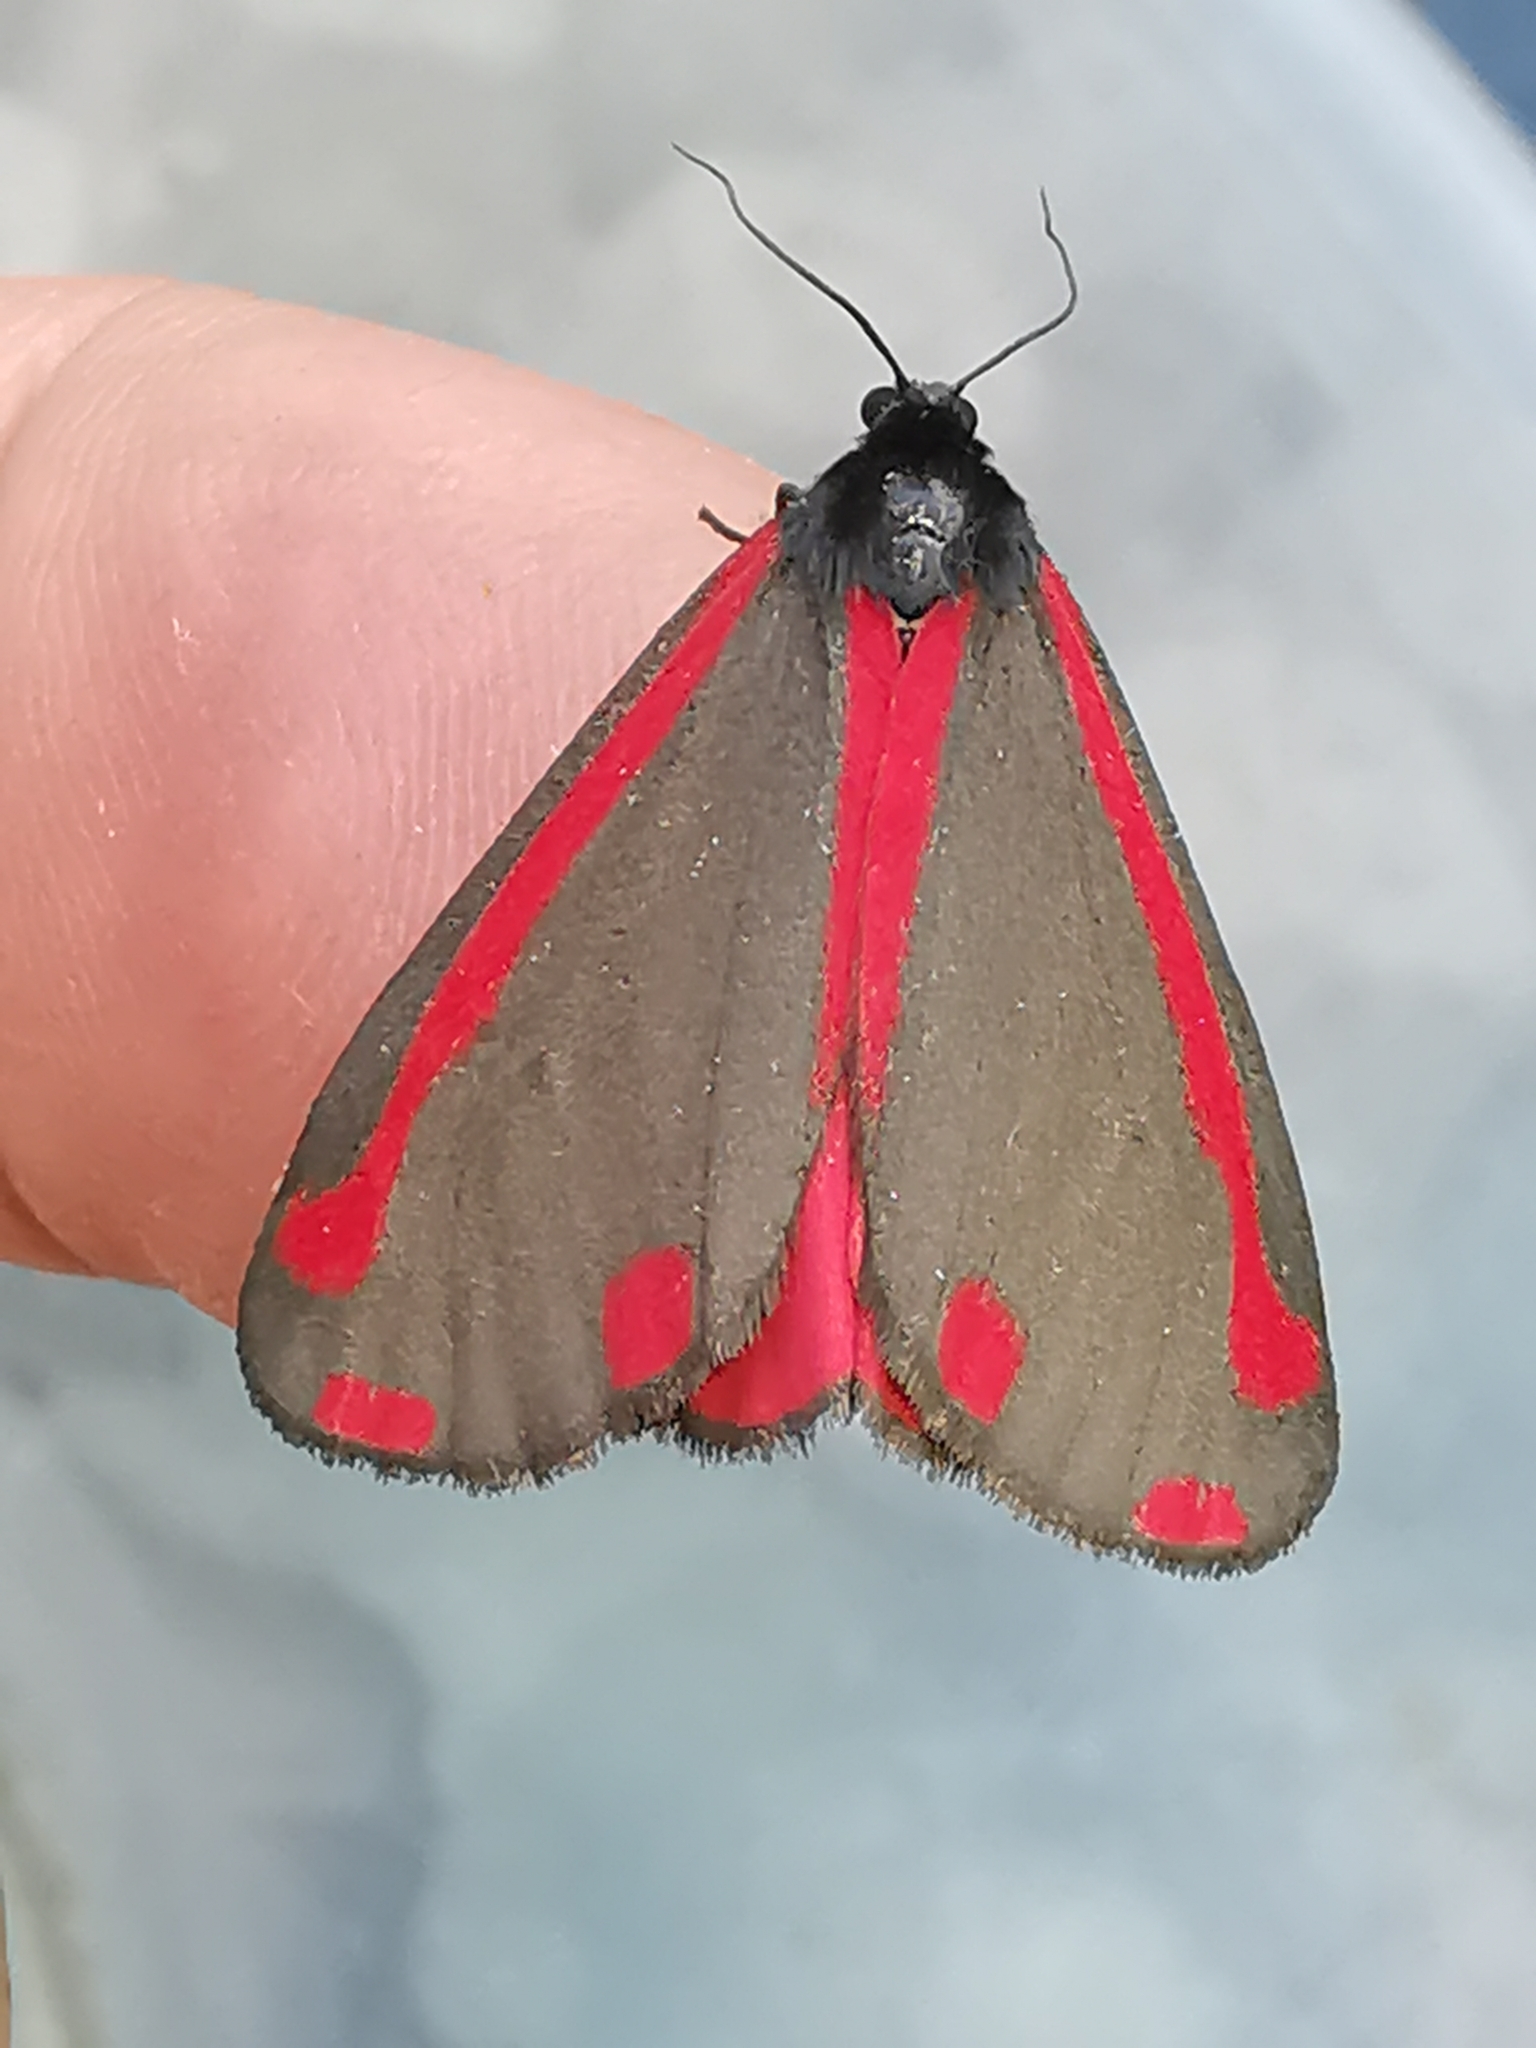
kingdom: Animalia
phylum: Arthropoda
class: Insecta
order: Lepidoptera
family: Erebidae
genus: Tyria
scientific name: Tyria jacobaeae
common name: Cinnabar
